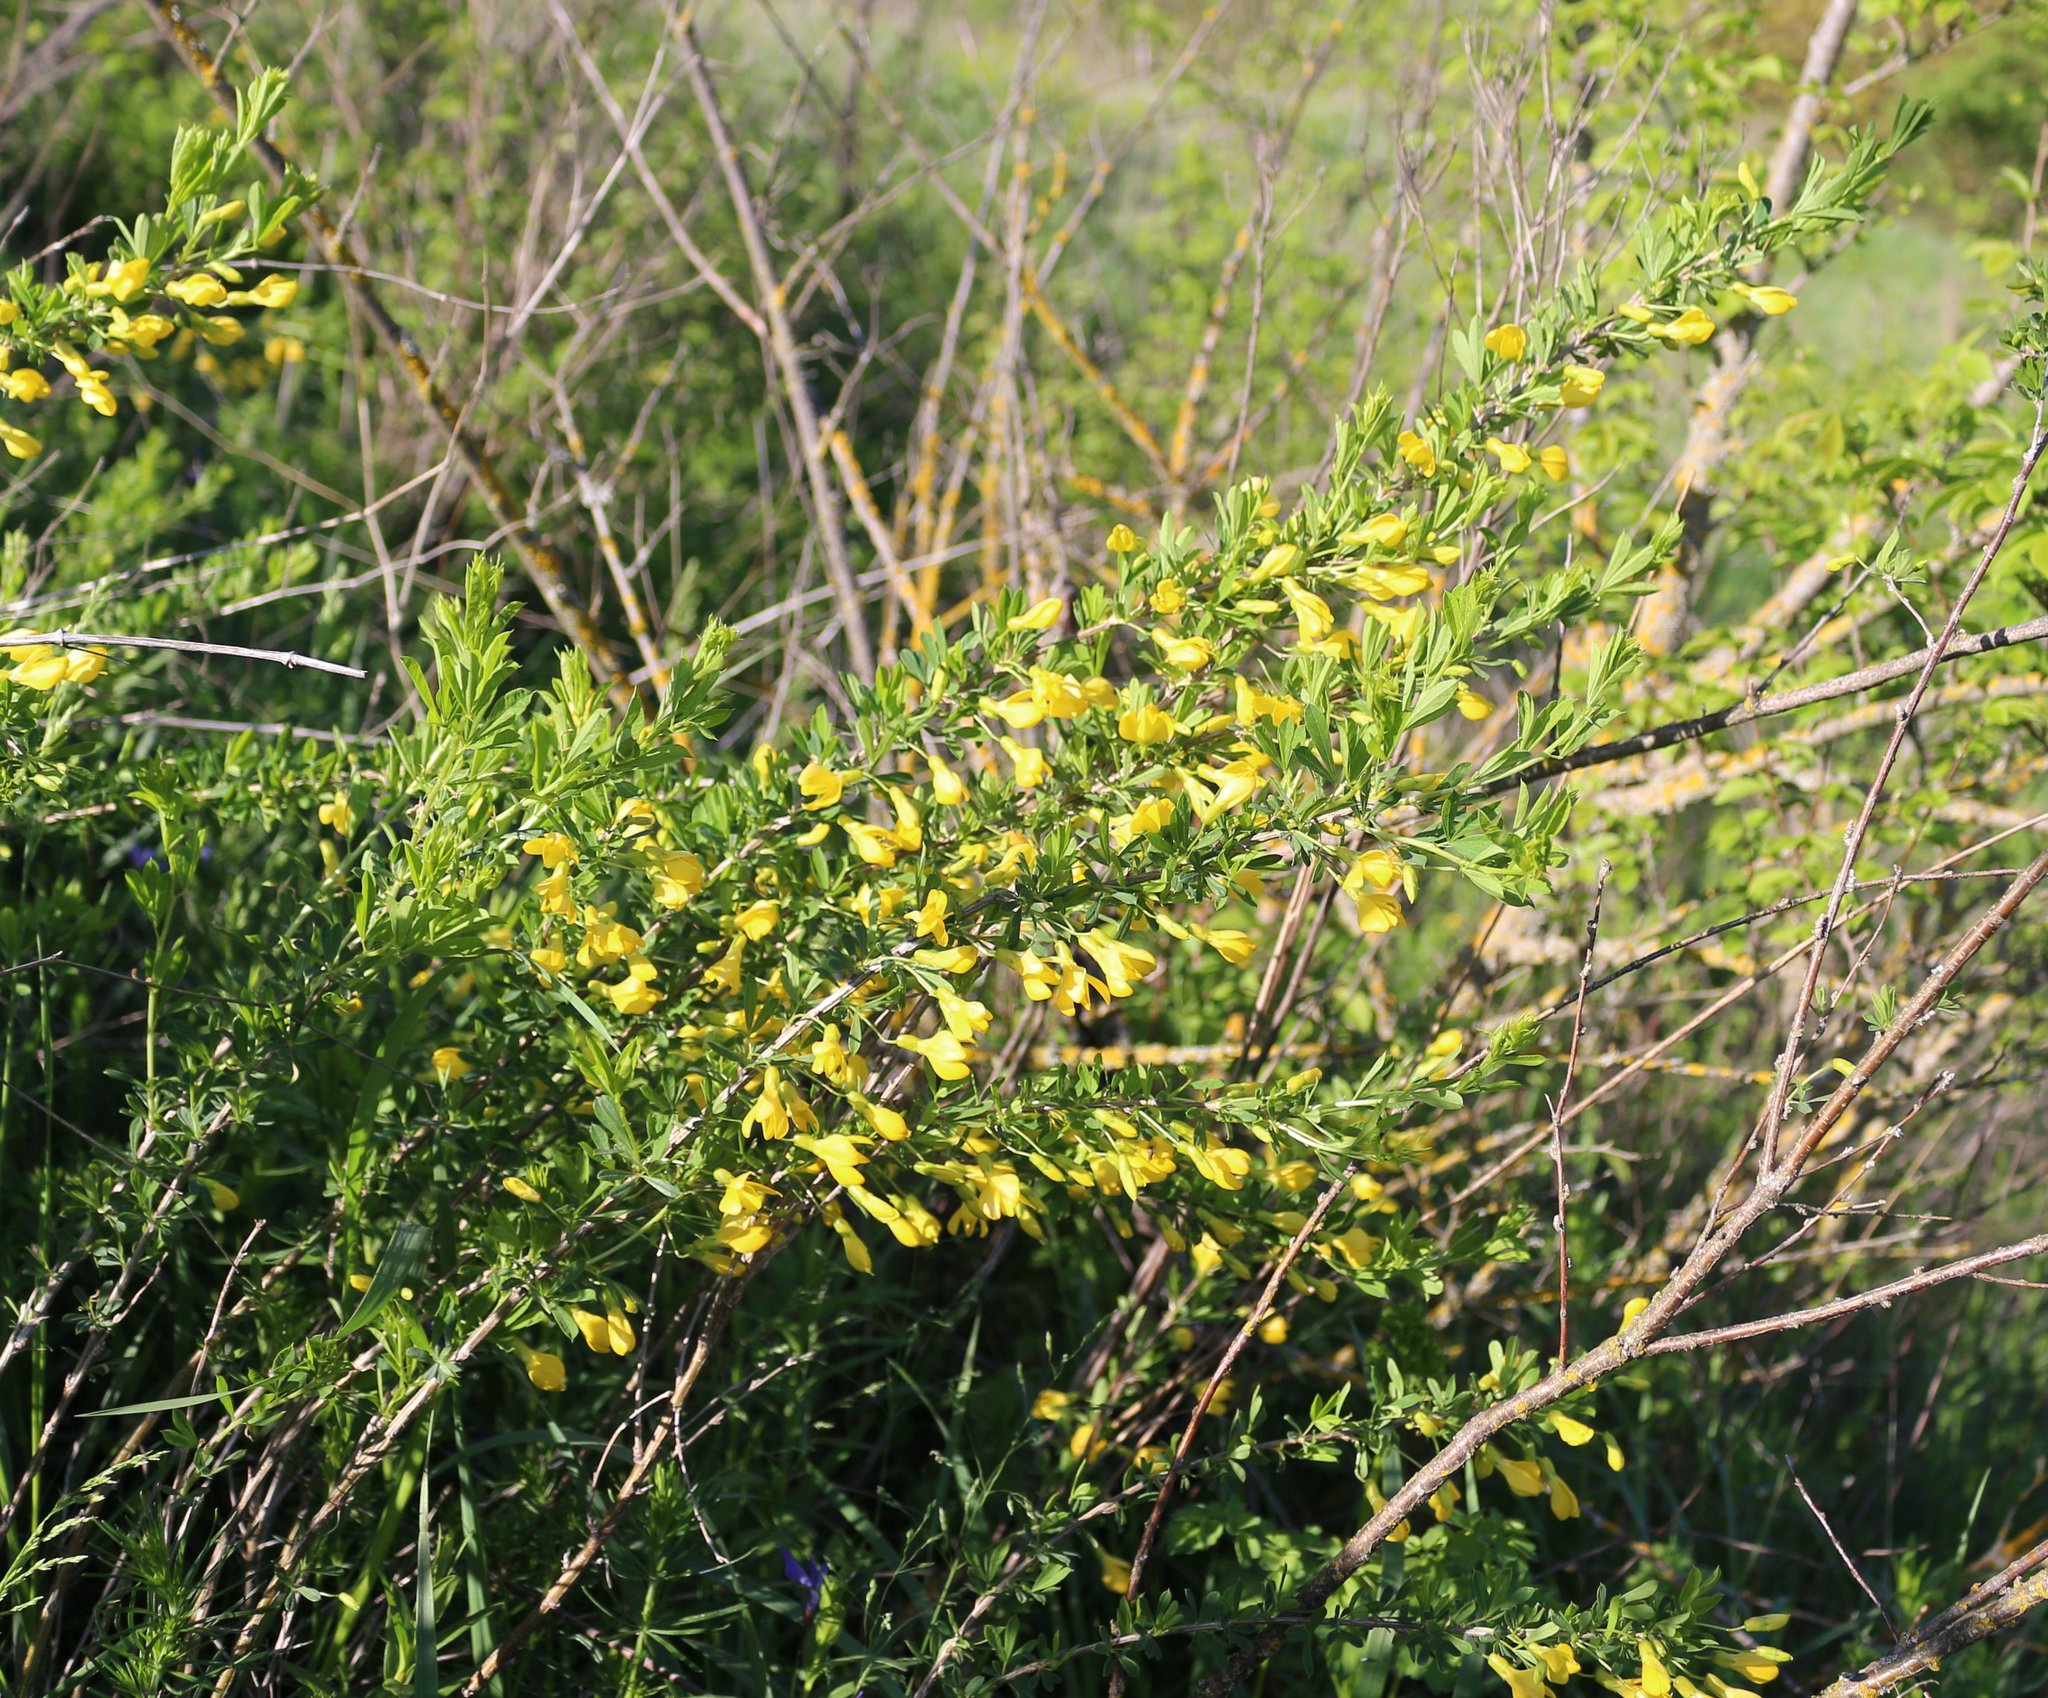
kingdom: Plantae
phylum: Tracheophyta
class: Magnoliopsida
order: Fabales
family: Fabaceae
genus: Caragana
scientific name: Caragana frutex
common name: Russian peashrub
